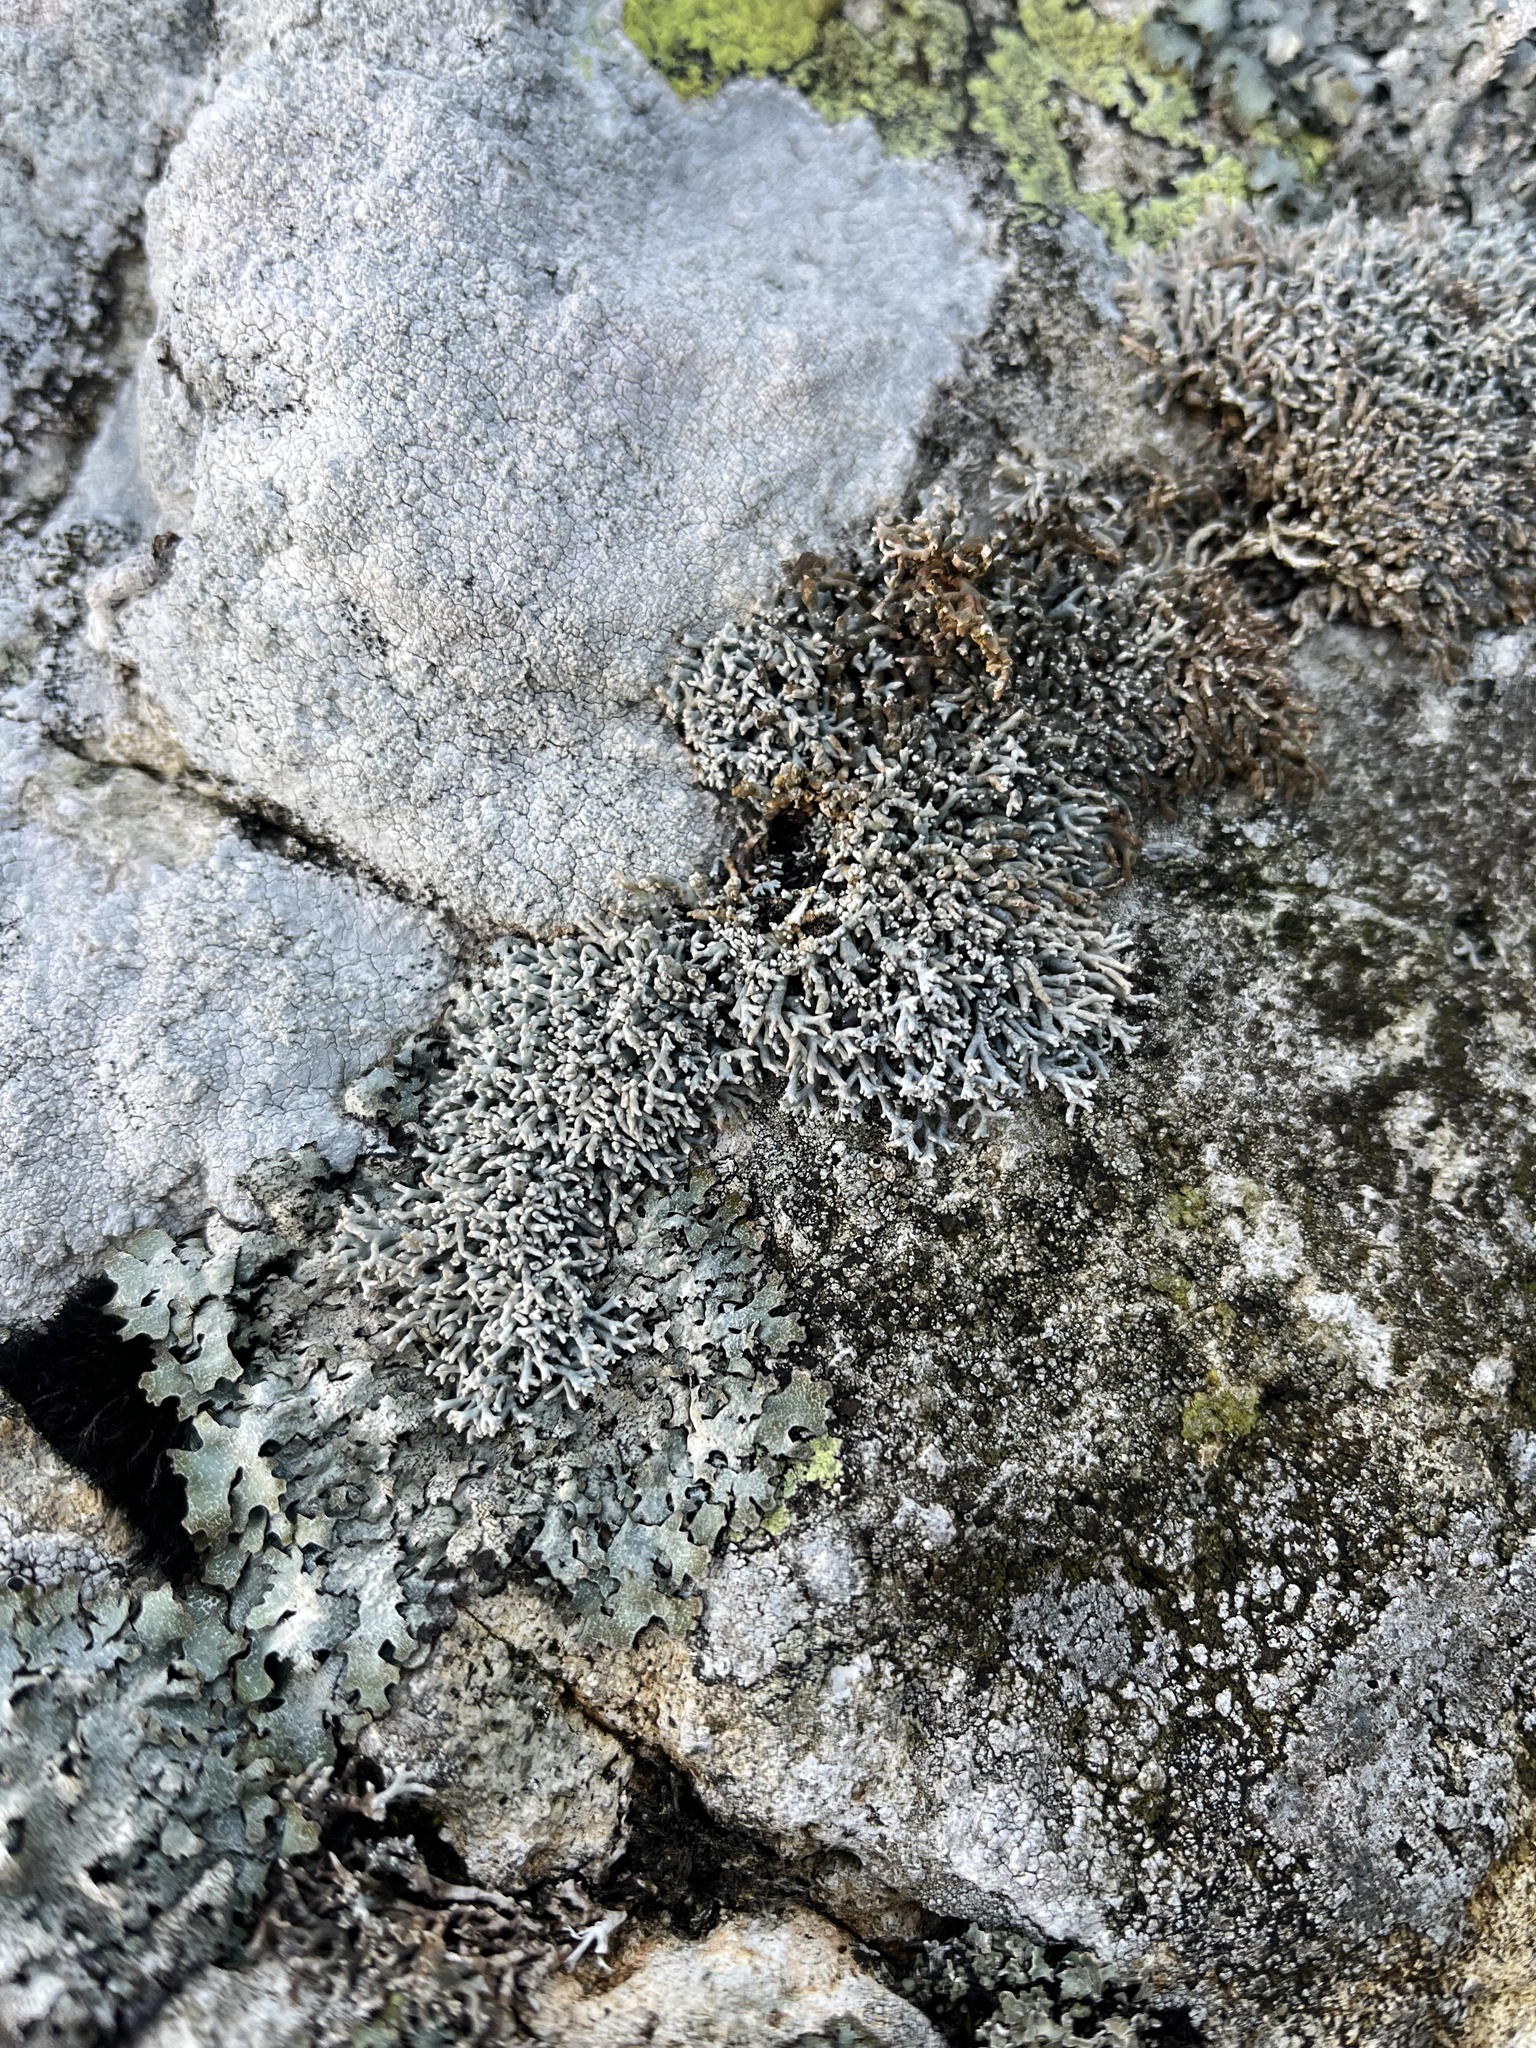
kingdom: Fungi
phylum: Ascomycota
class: Lecanoromycetes
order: Lecanorales
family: Sphaerophoraceae
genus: Sphaerophorus
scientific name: Sphaerophorus fragilis
